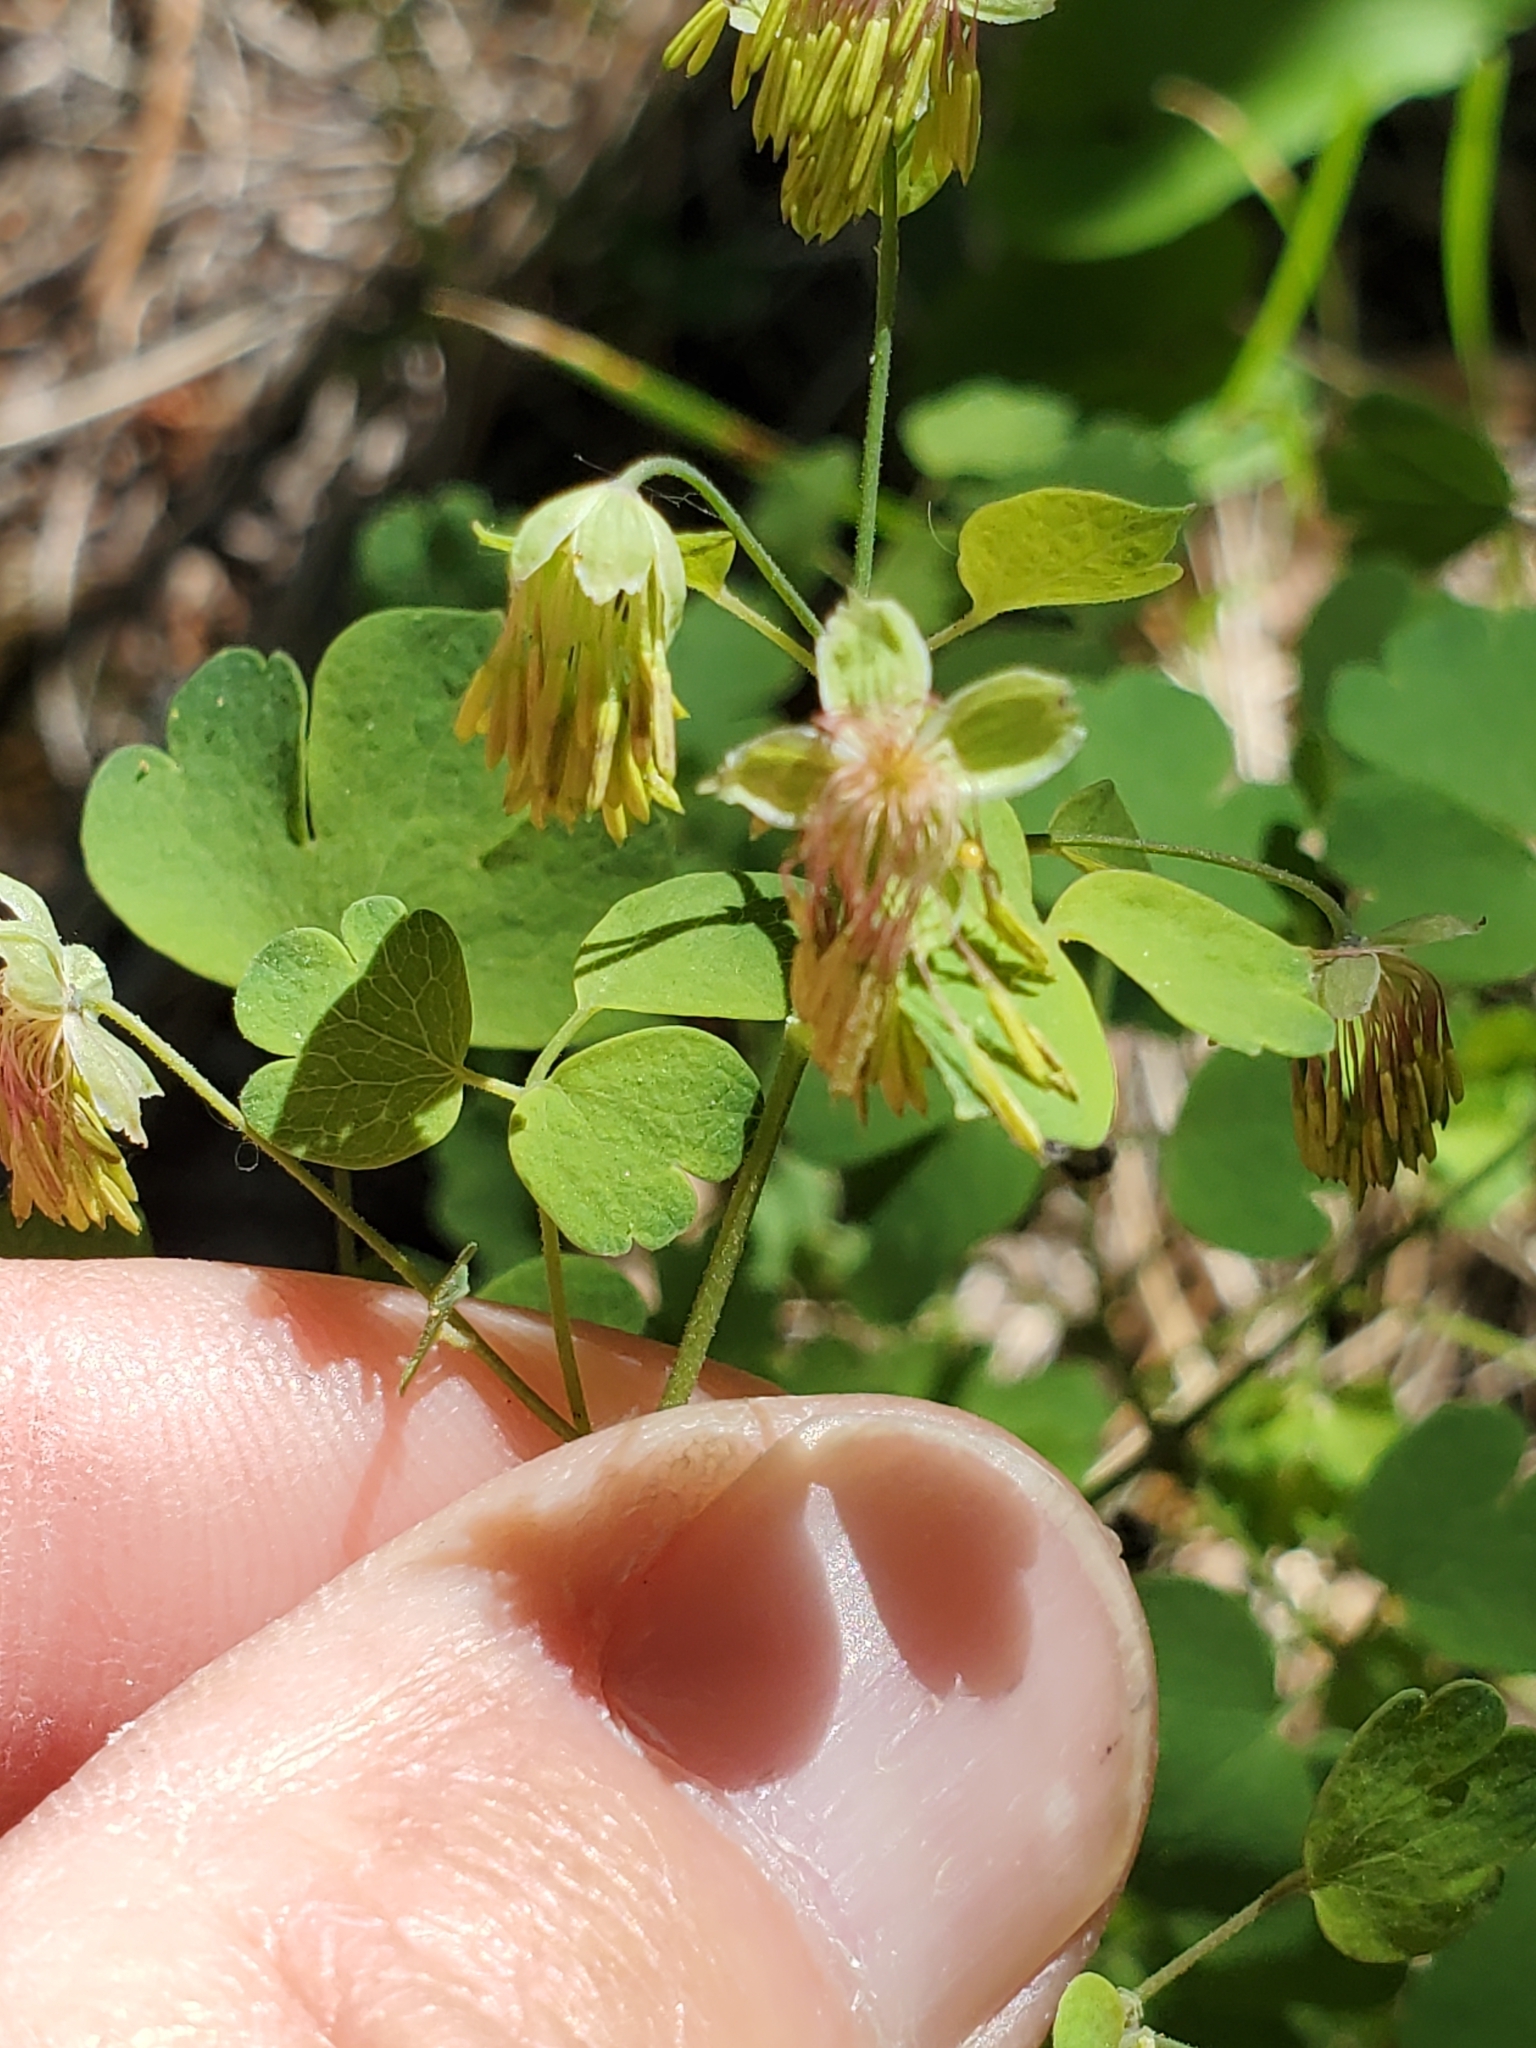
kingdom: Plantae
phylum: Tracheophyta
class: Magnoliopsida
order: Ranunculales
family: Ranunculaceae
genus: Thalictrum
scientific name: Thalictrum fendleri
